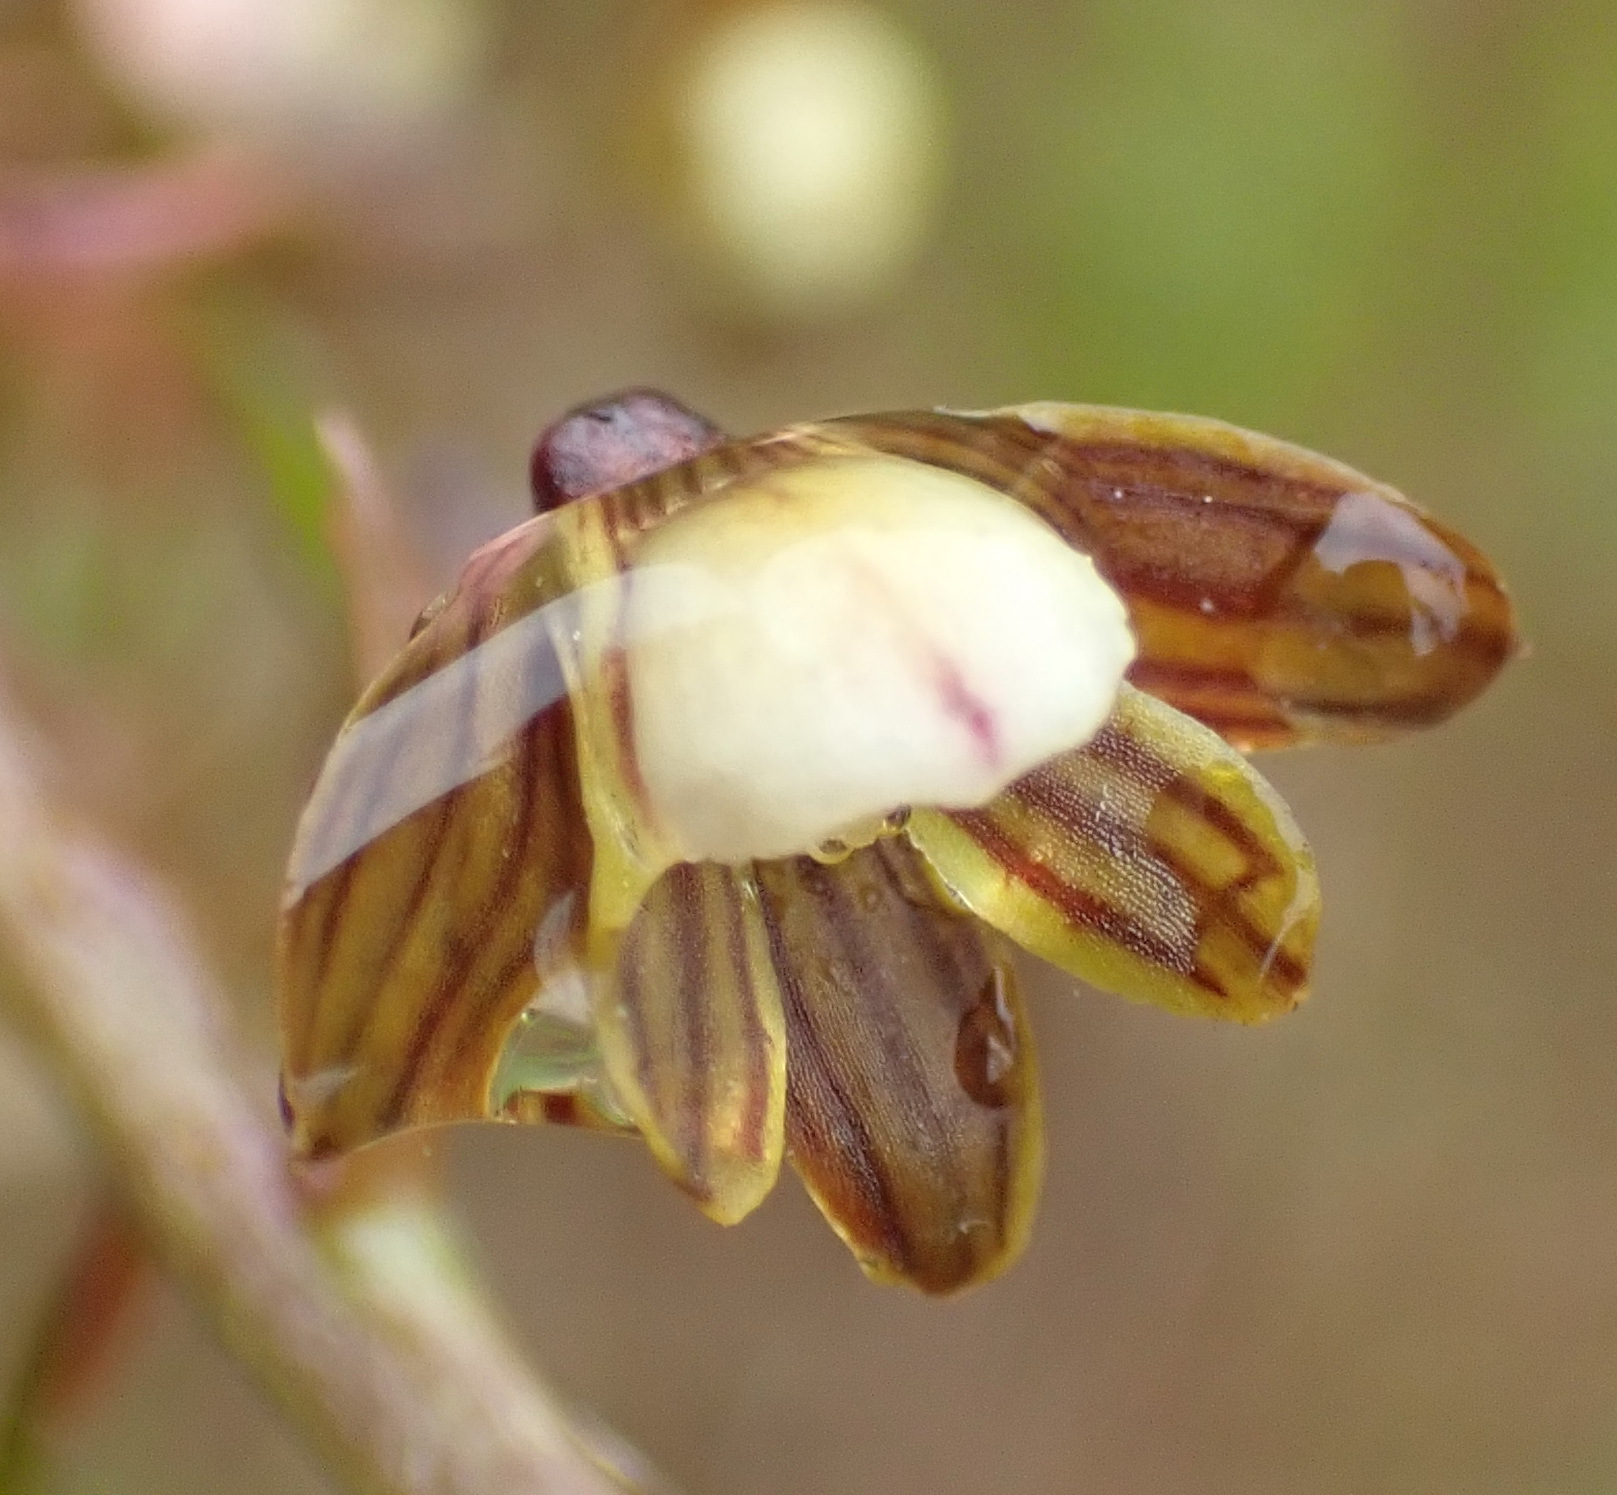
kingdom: Plantae
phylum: Tracheophyta
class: Liliopsida
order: Asparagales
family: Orchidaceae
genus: Eulophia
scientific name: Eulophia cochlearis
